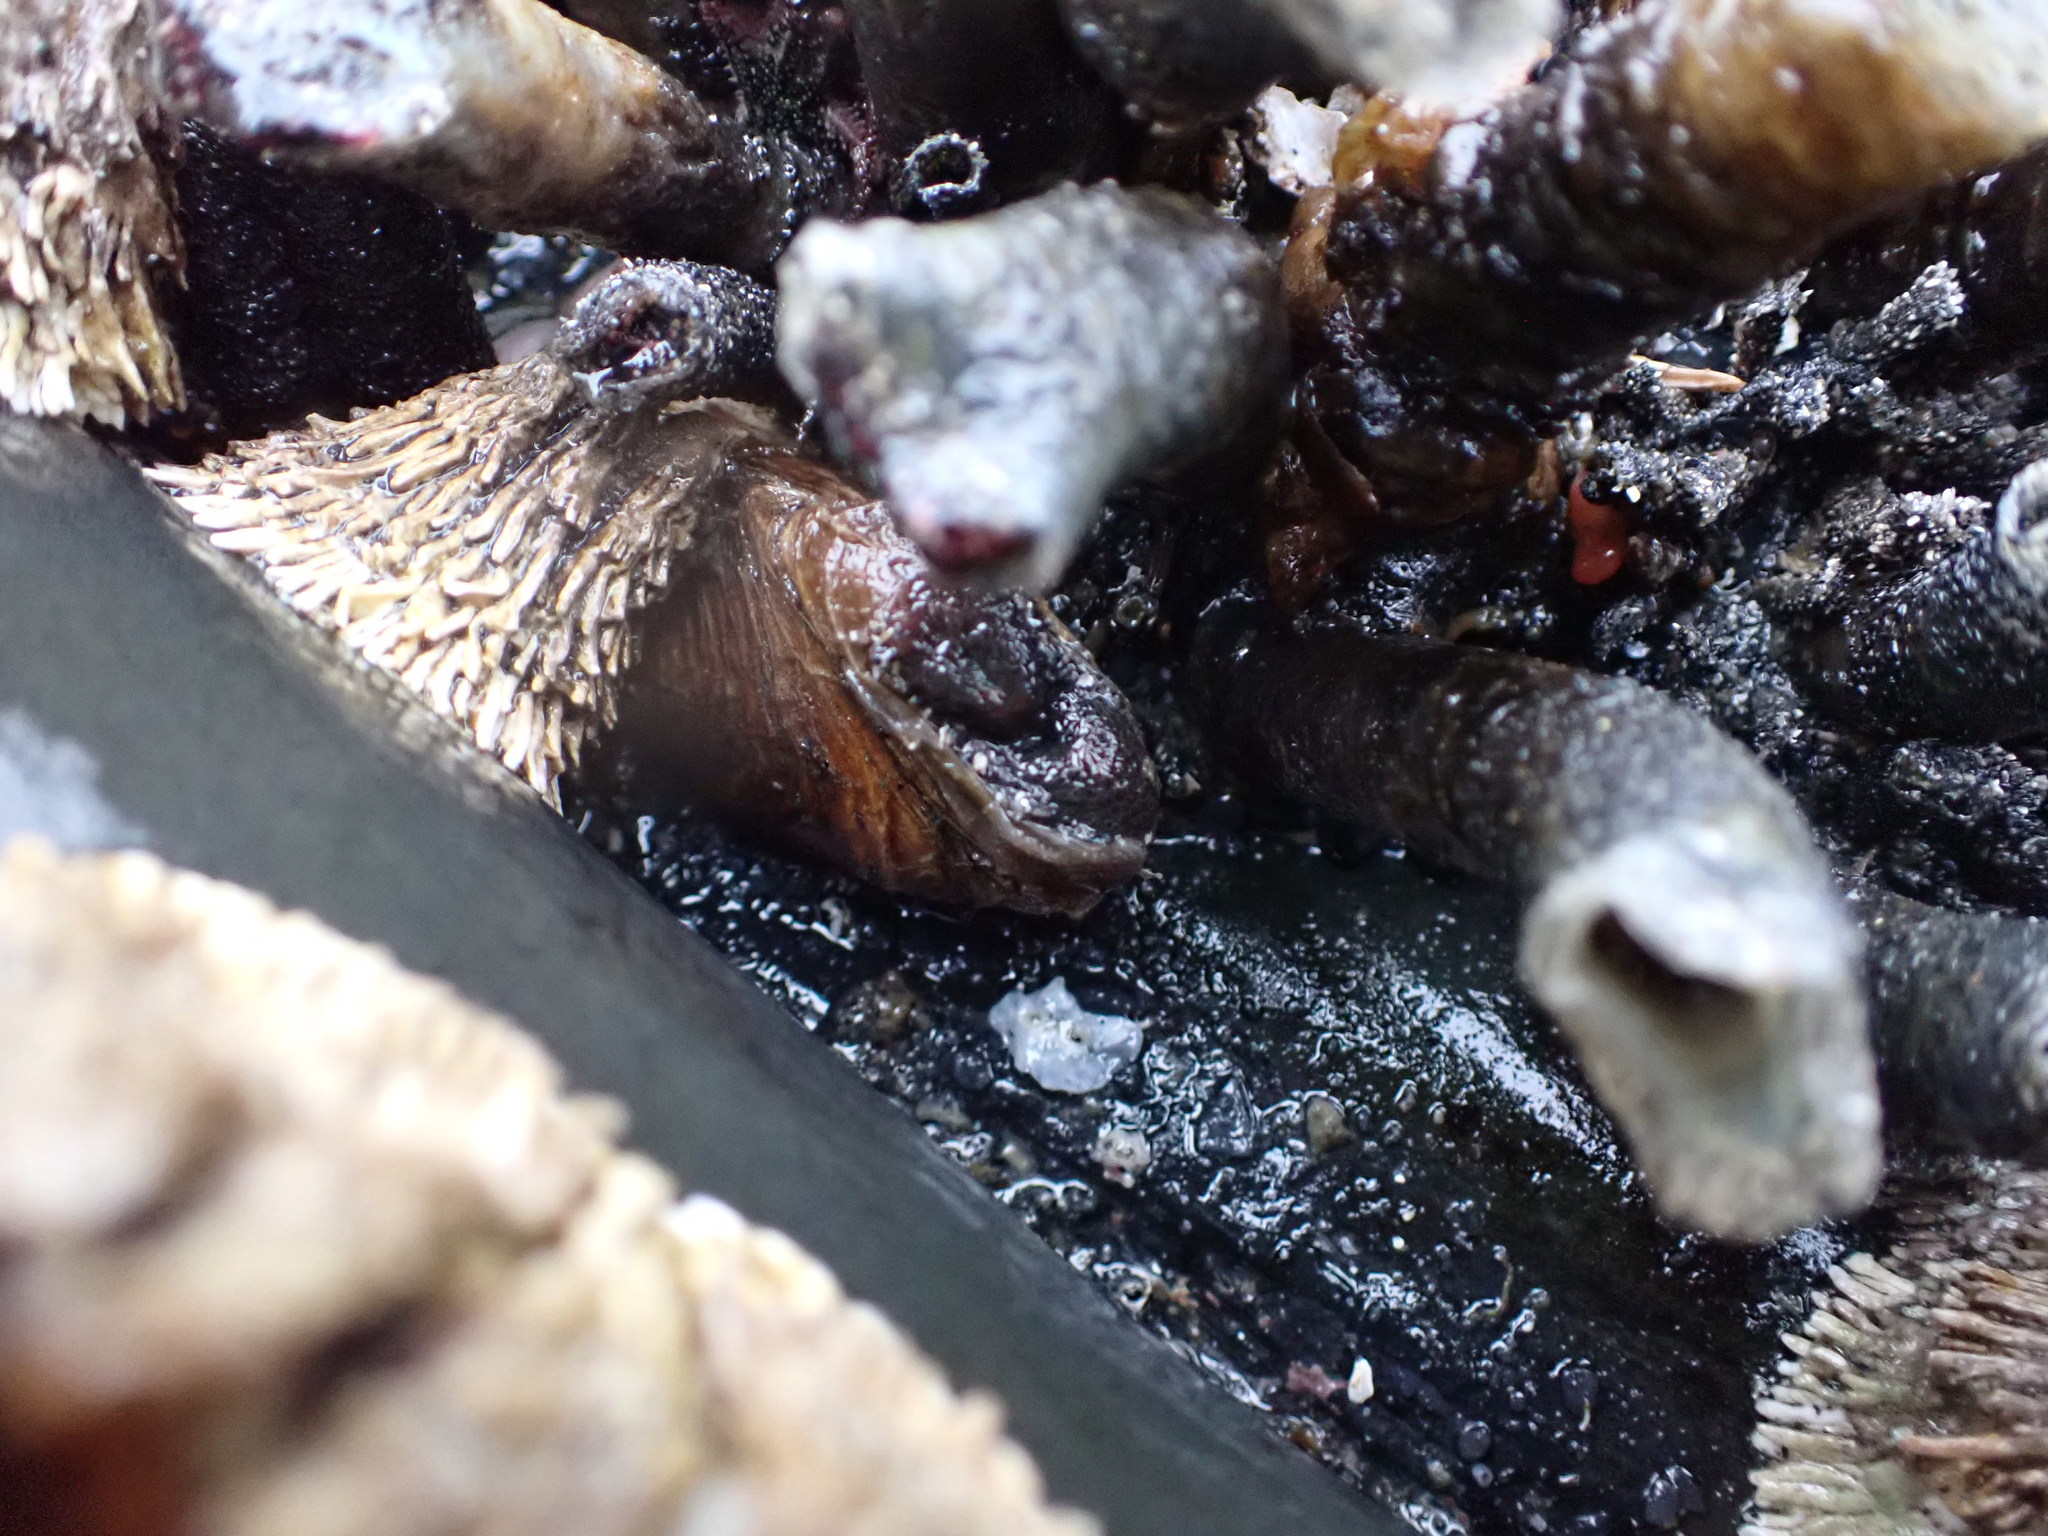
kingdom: Animalia
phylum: Mollusca
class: Bivalvia
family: Lyonsiidae
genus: Entodesma
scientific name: Entodesma navicula
